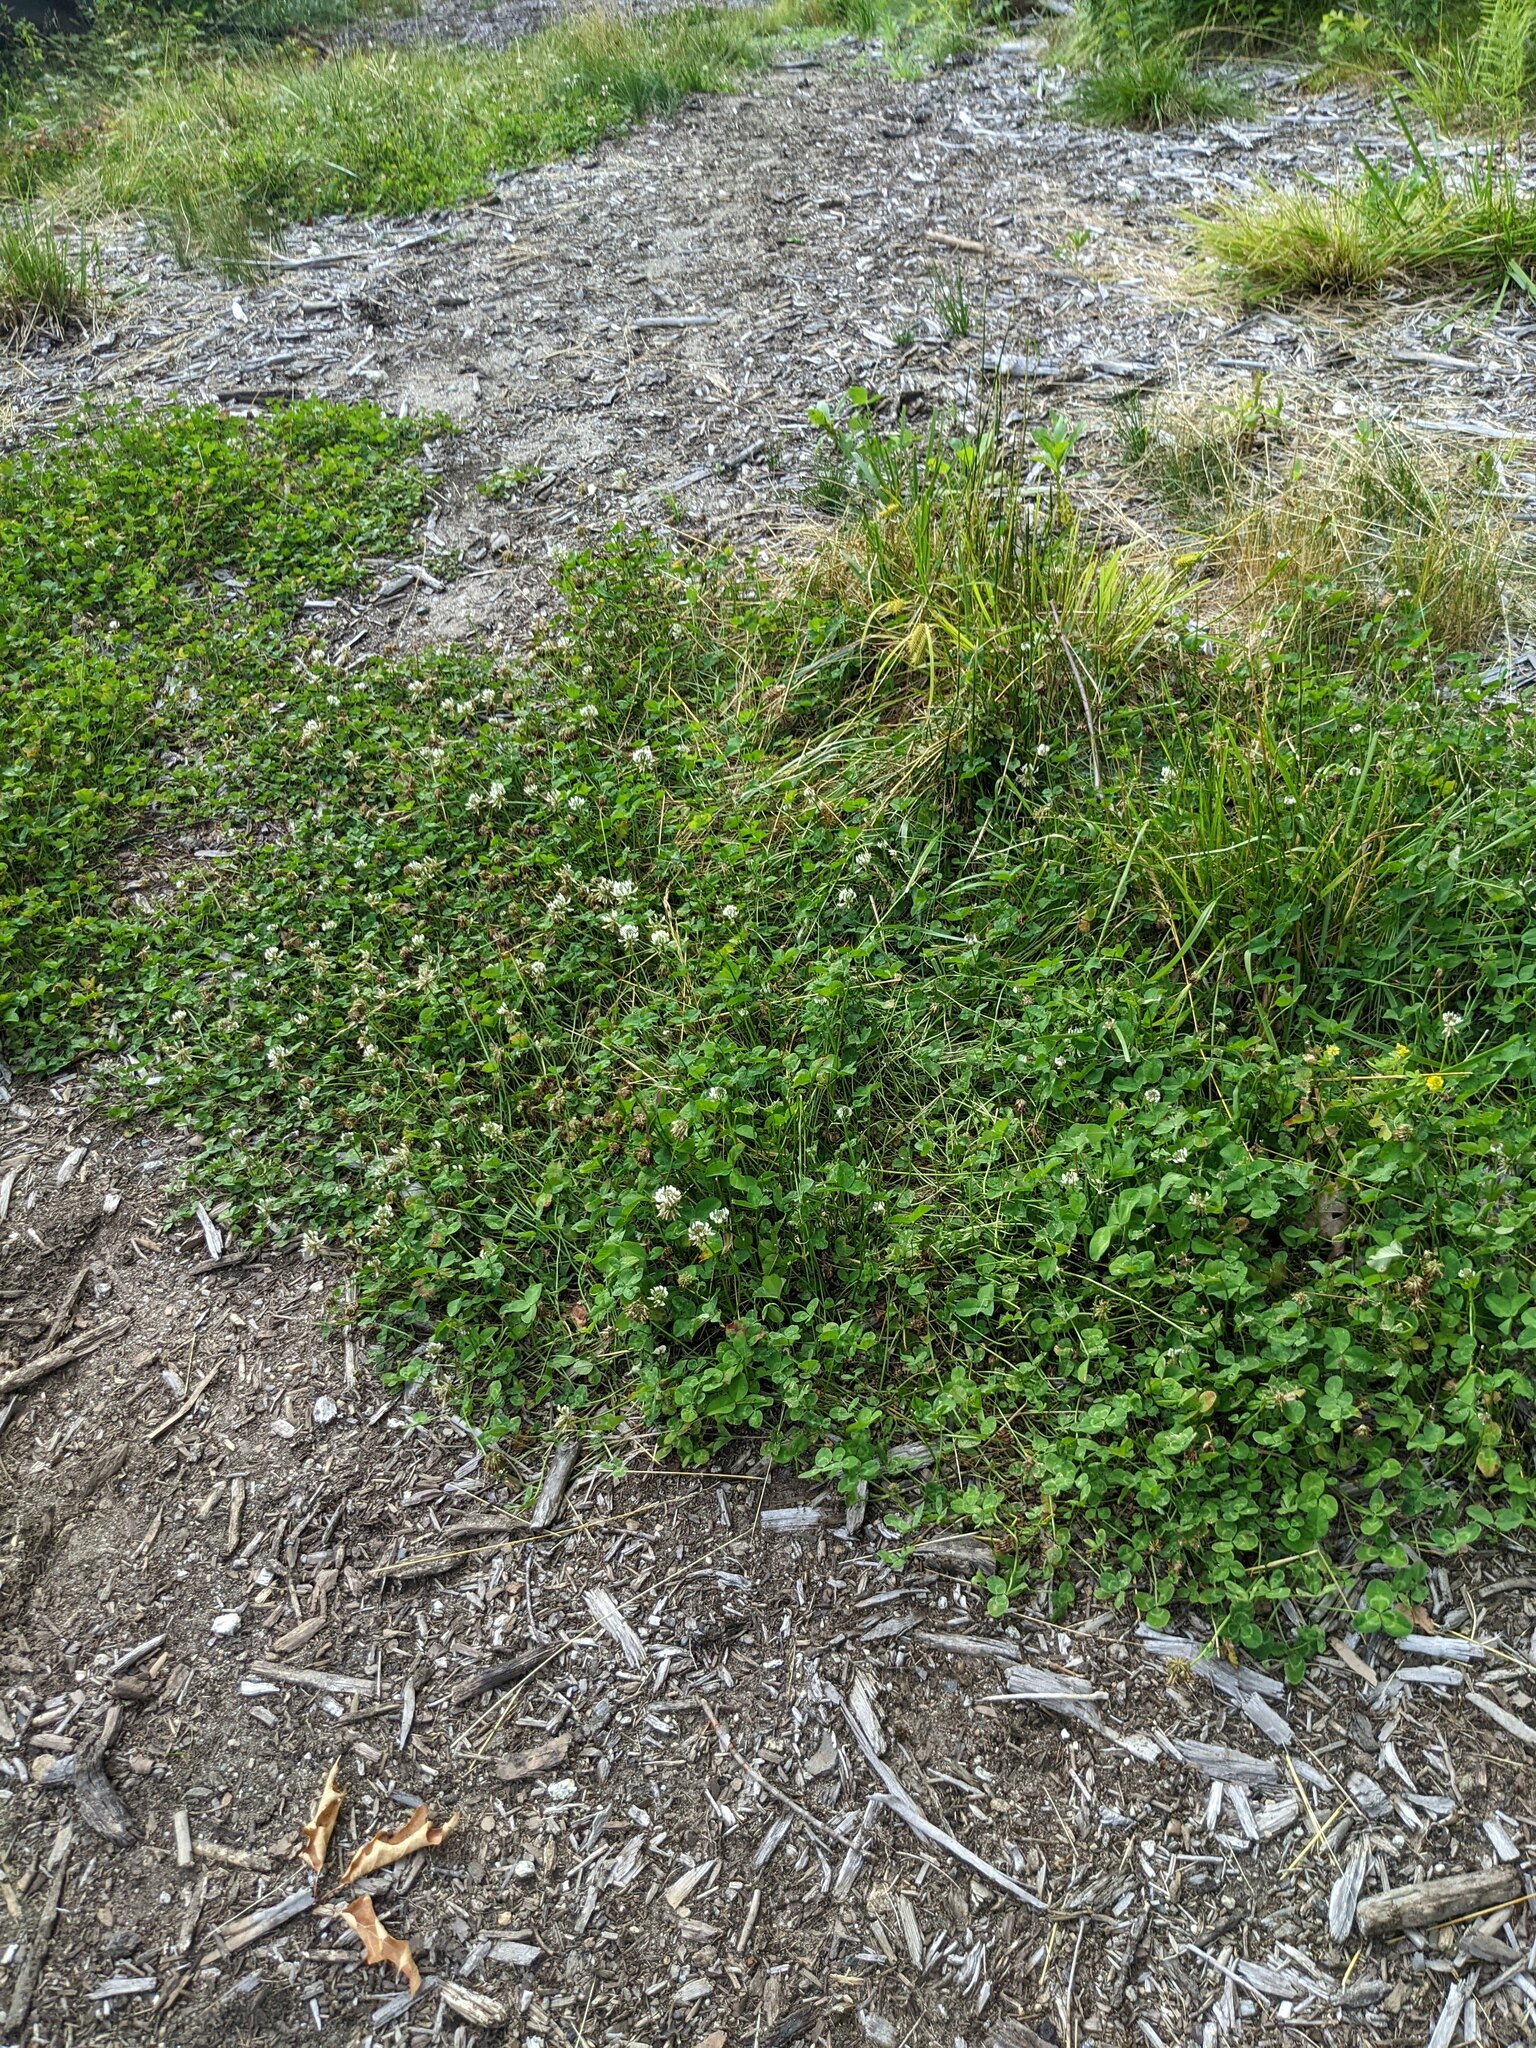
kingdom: Plantae
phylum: Tracheophyta
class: Magnoliopsida
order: Fabales
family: Fabaceae
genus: Trifolium
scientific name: Trifolium repens
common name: White clover
